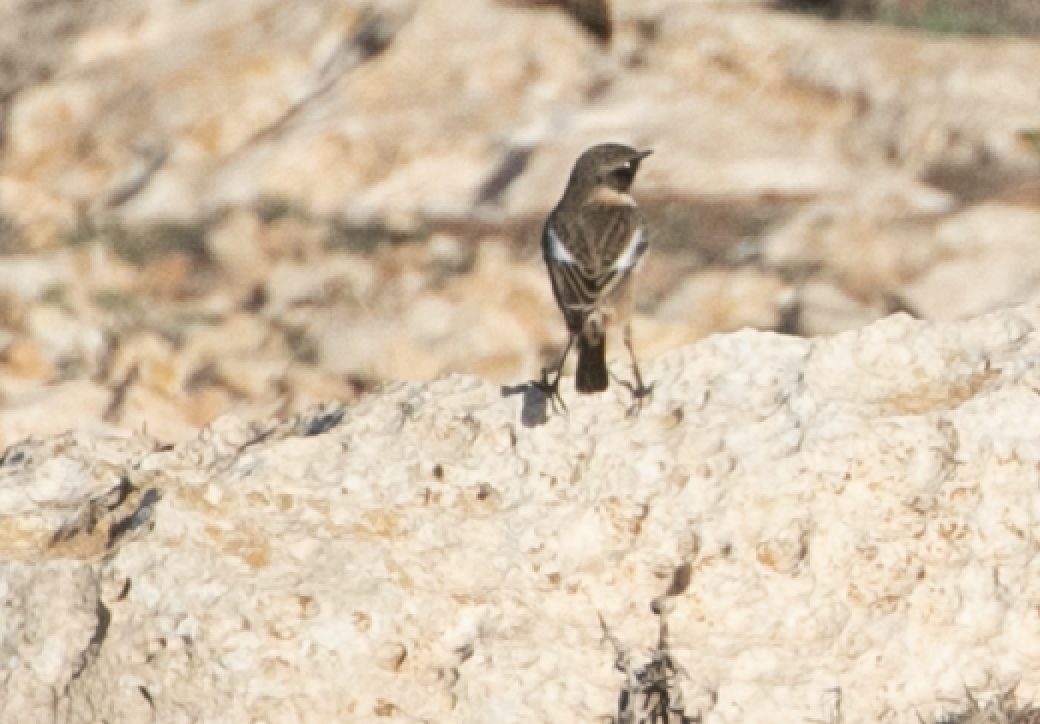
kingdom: Animalia
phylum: Chordata
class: Aves
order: Passeriformes
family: Muscicapidae
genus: Saxicola
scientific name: Saxicola rubicola
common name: European stonechat
